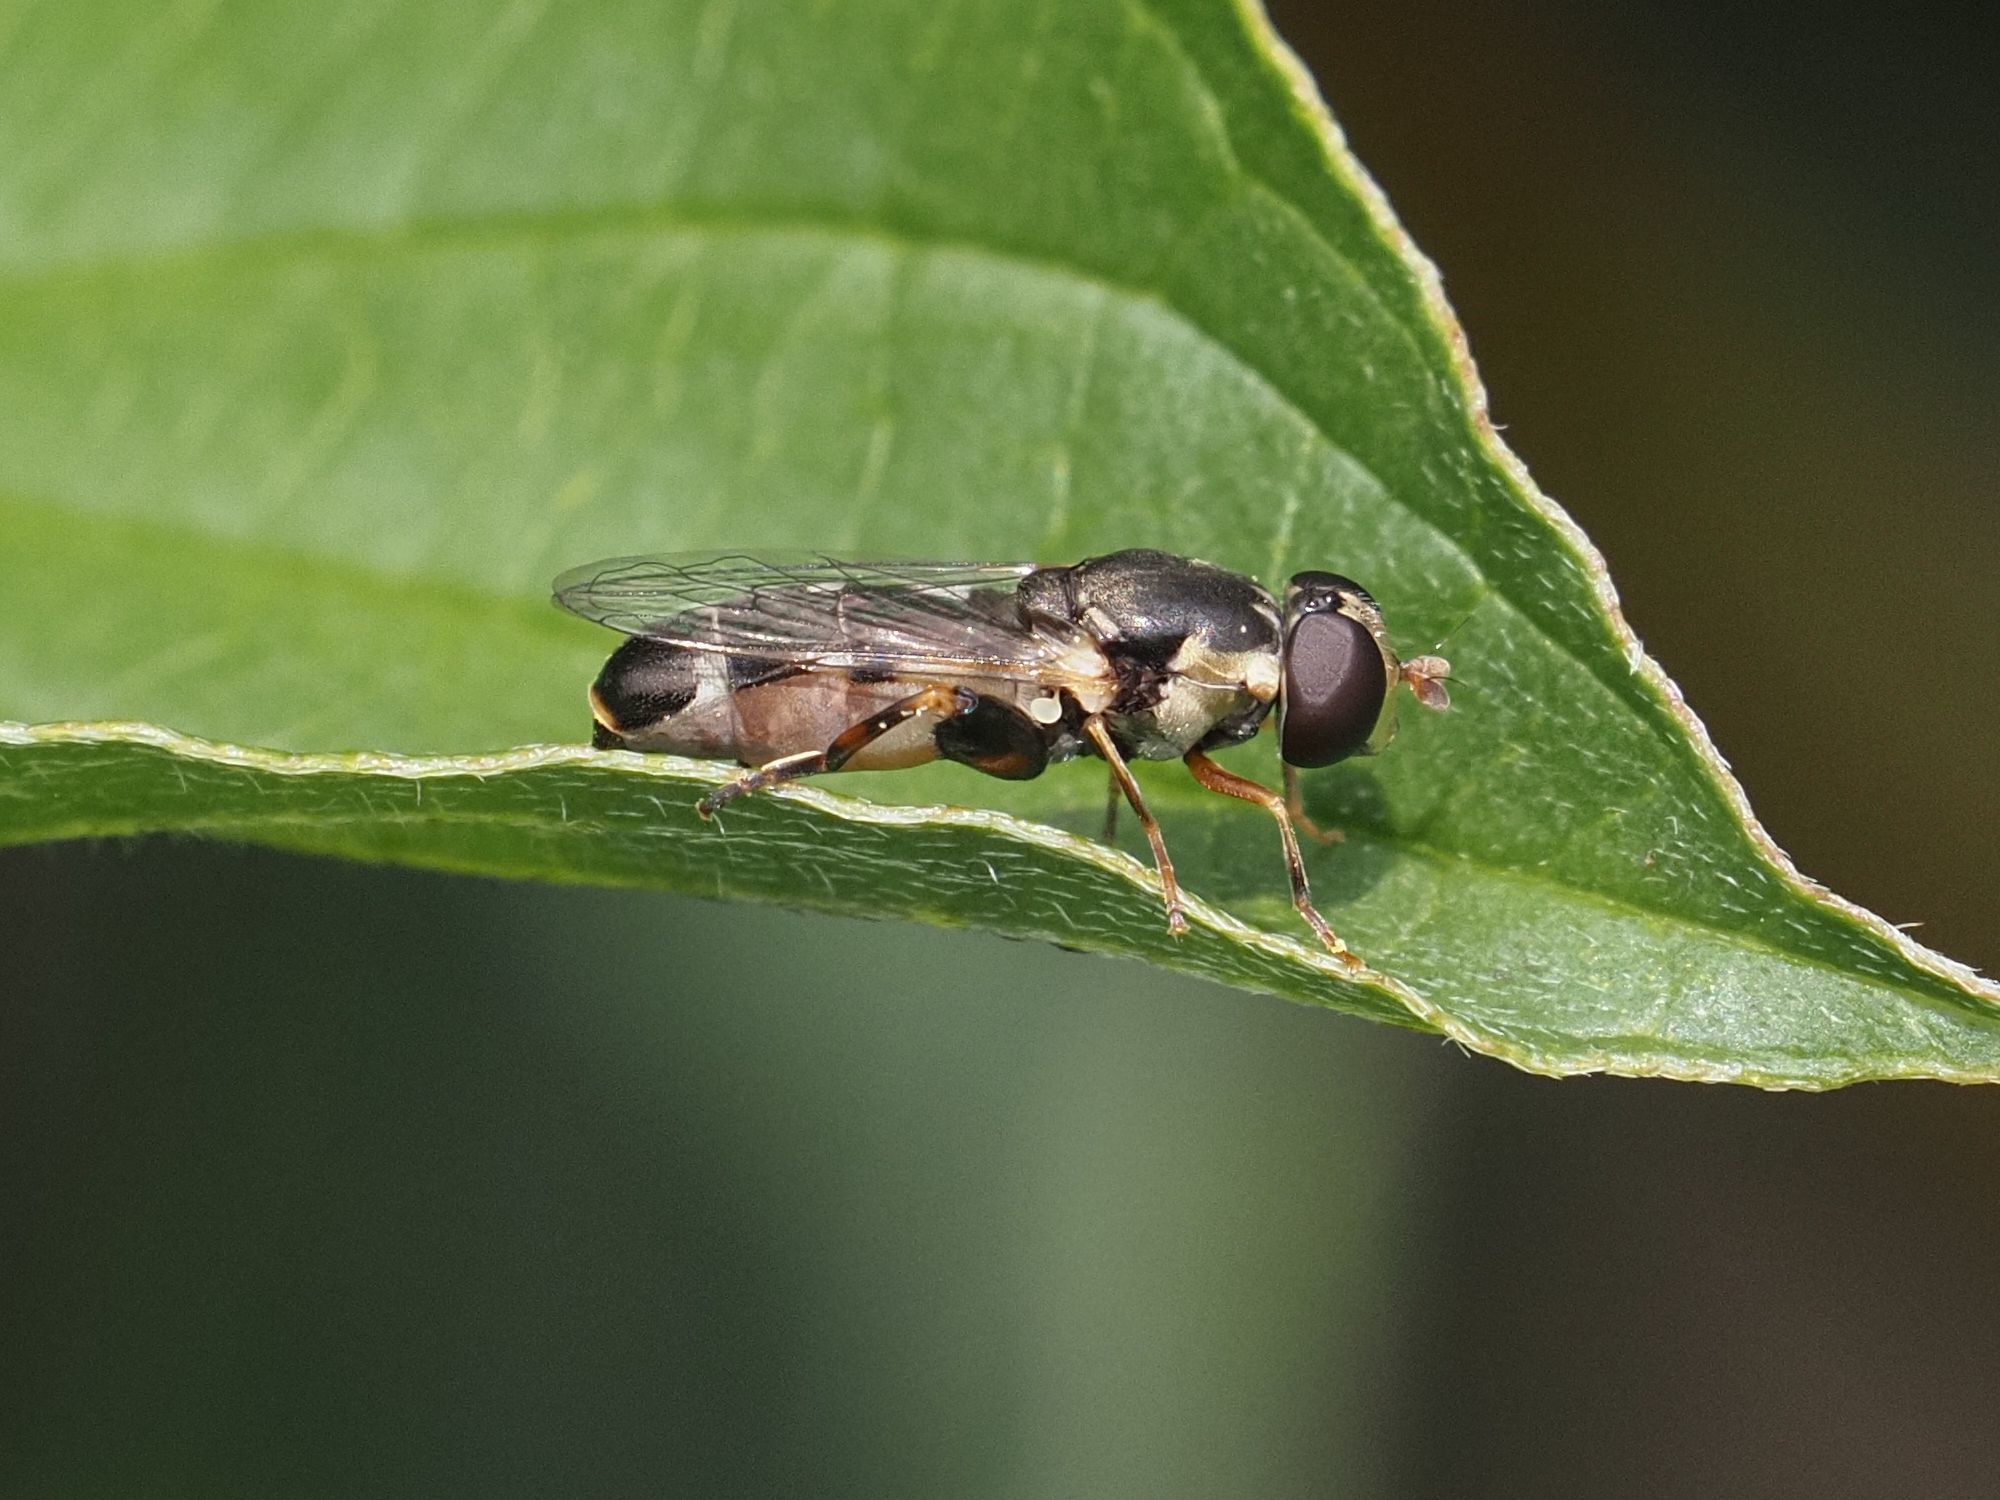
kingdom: Animalia
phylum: Arthropoda
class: Insecta
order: Diptera
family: Syrphidae
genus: Syritta
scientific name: Syritta pipiens
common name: Hover fly
